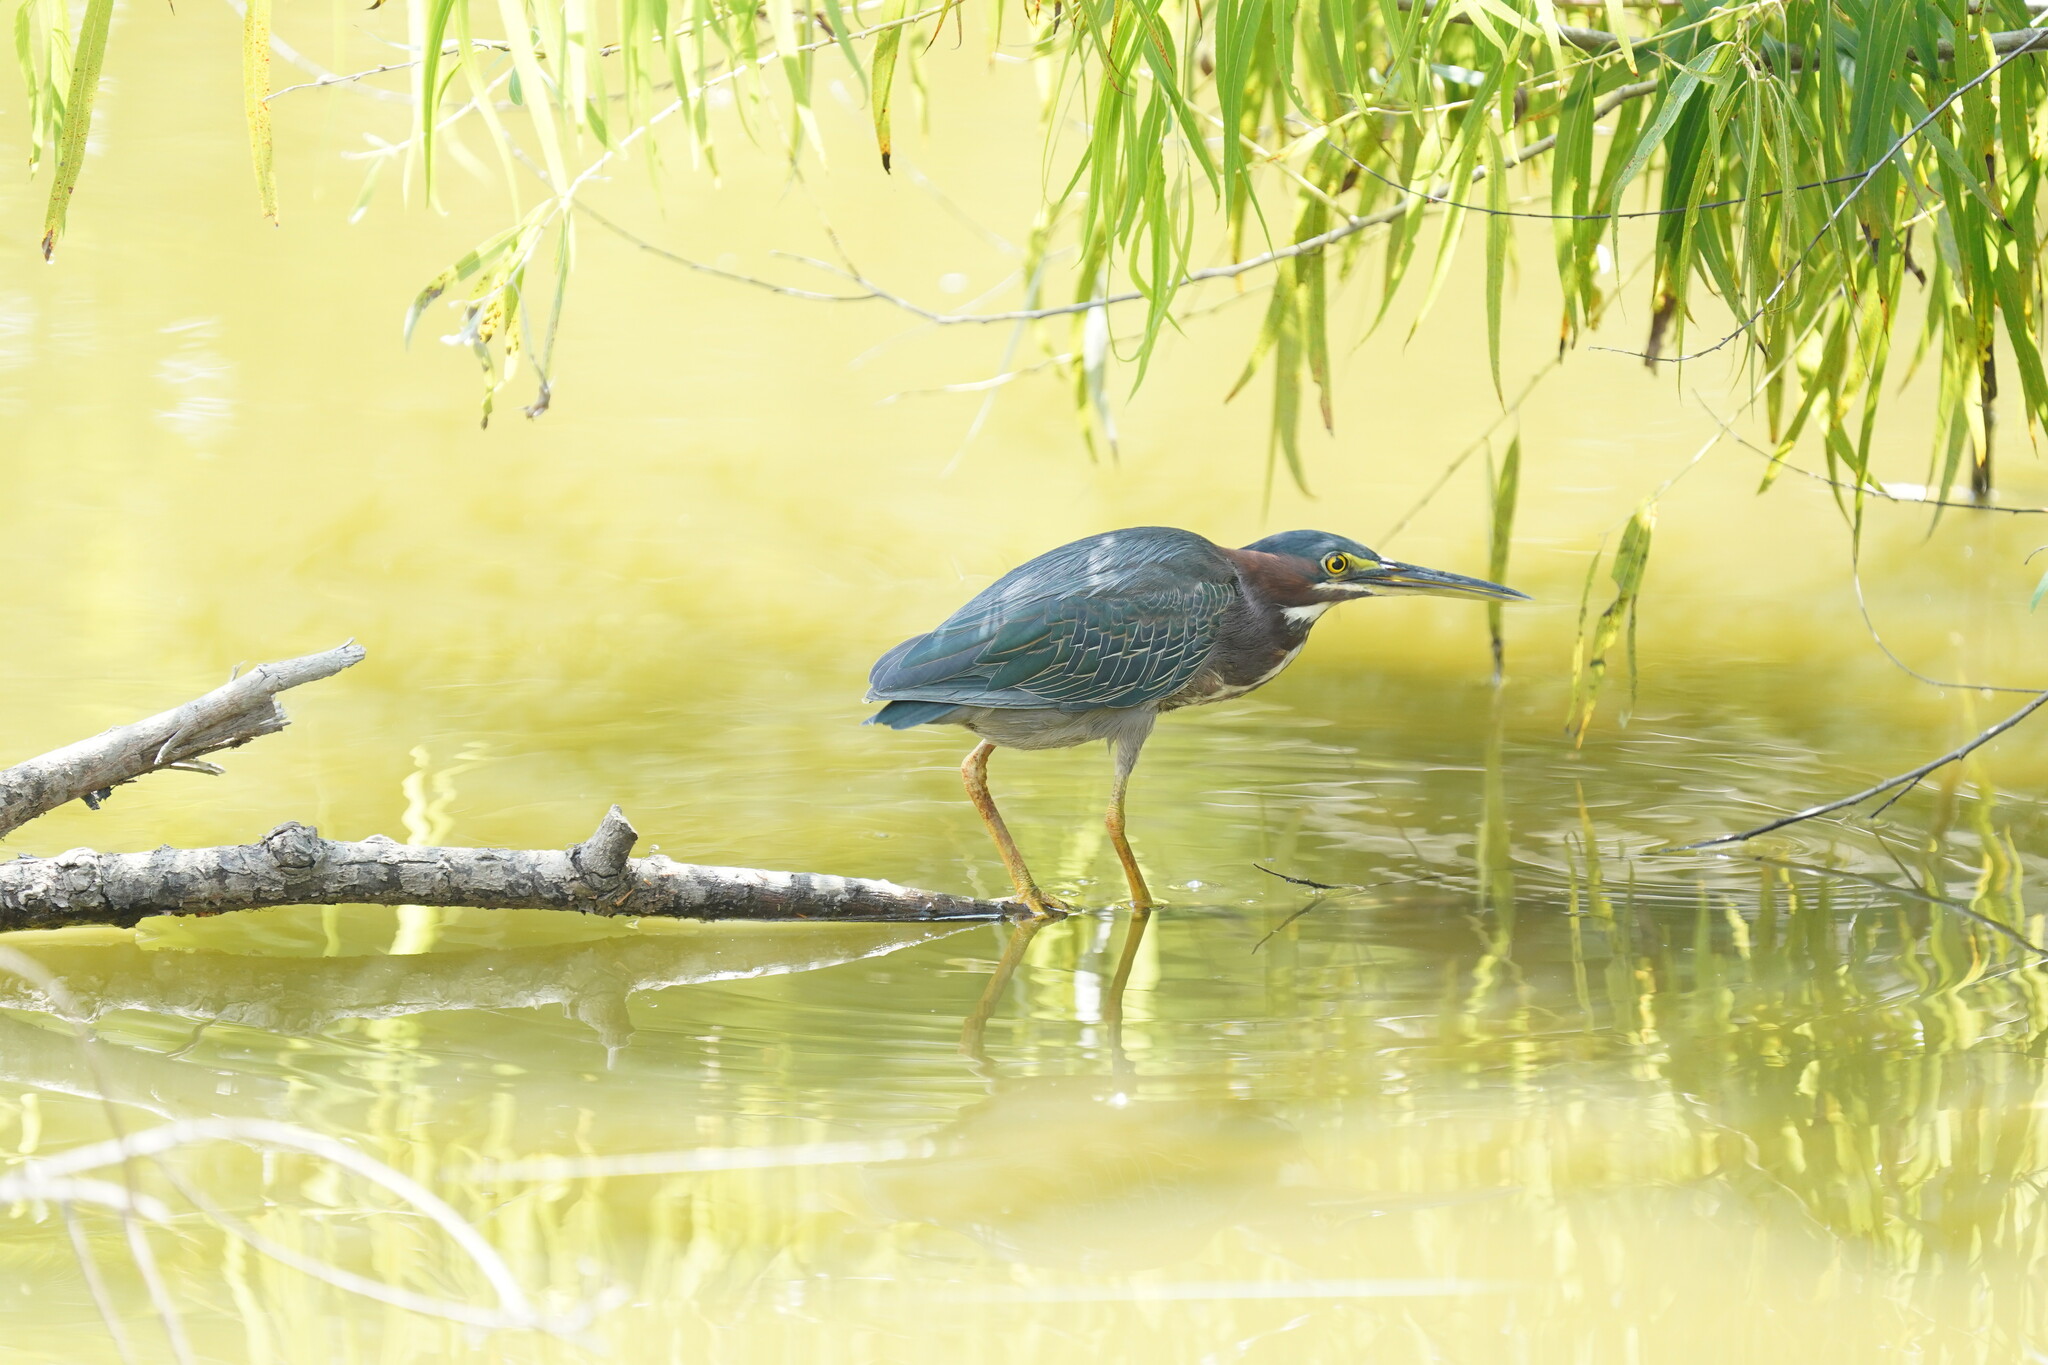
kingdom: Animalia
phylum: Chordata
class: Aves
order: Pelecaniformes
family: Ardeidae
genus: Butorides
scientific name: Butorides virescens
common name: Green heron
